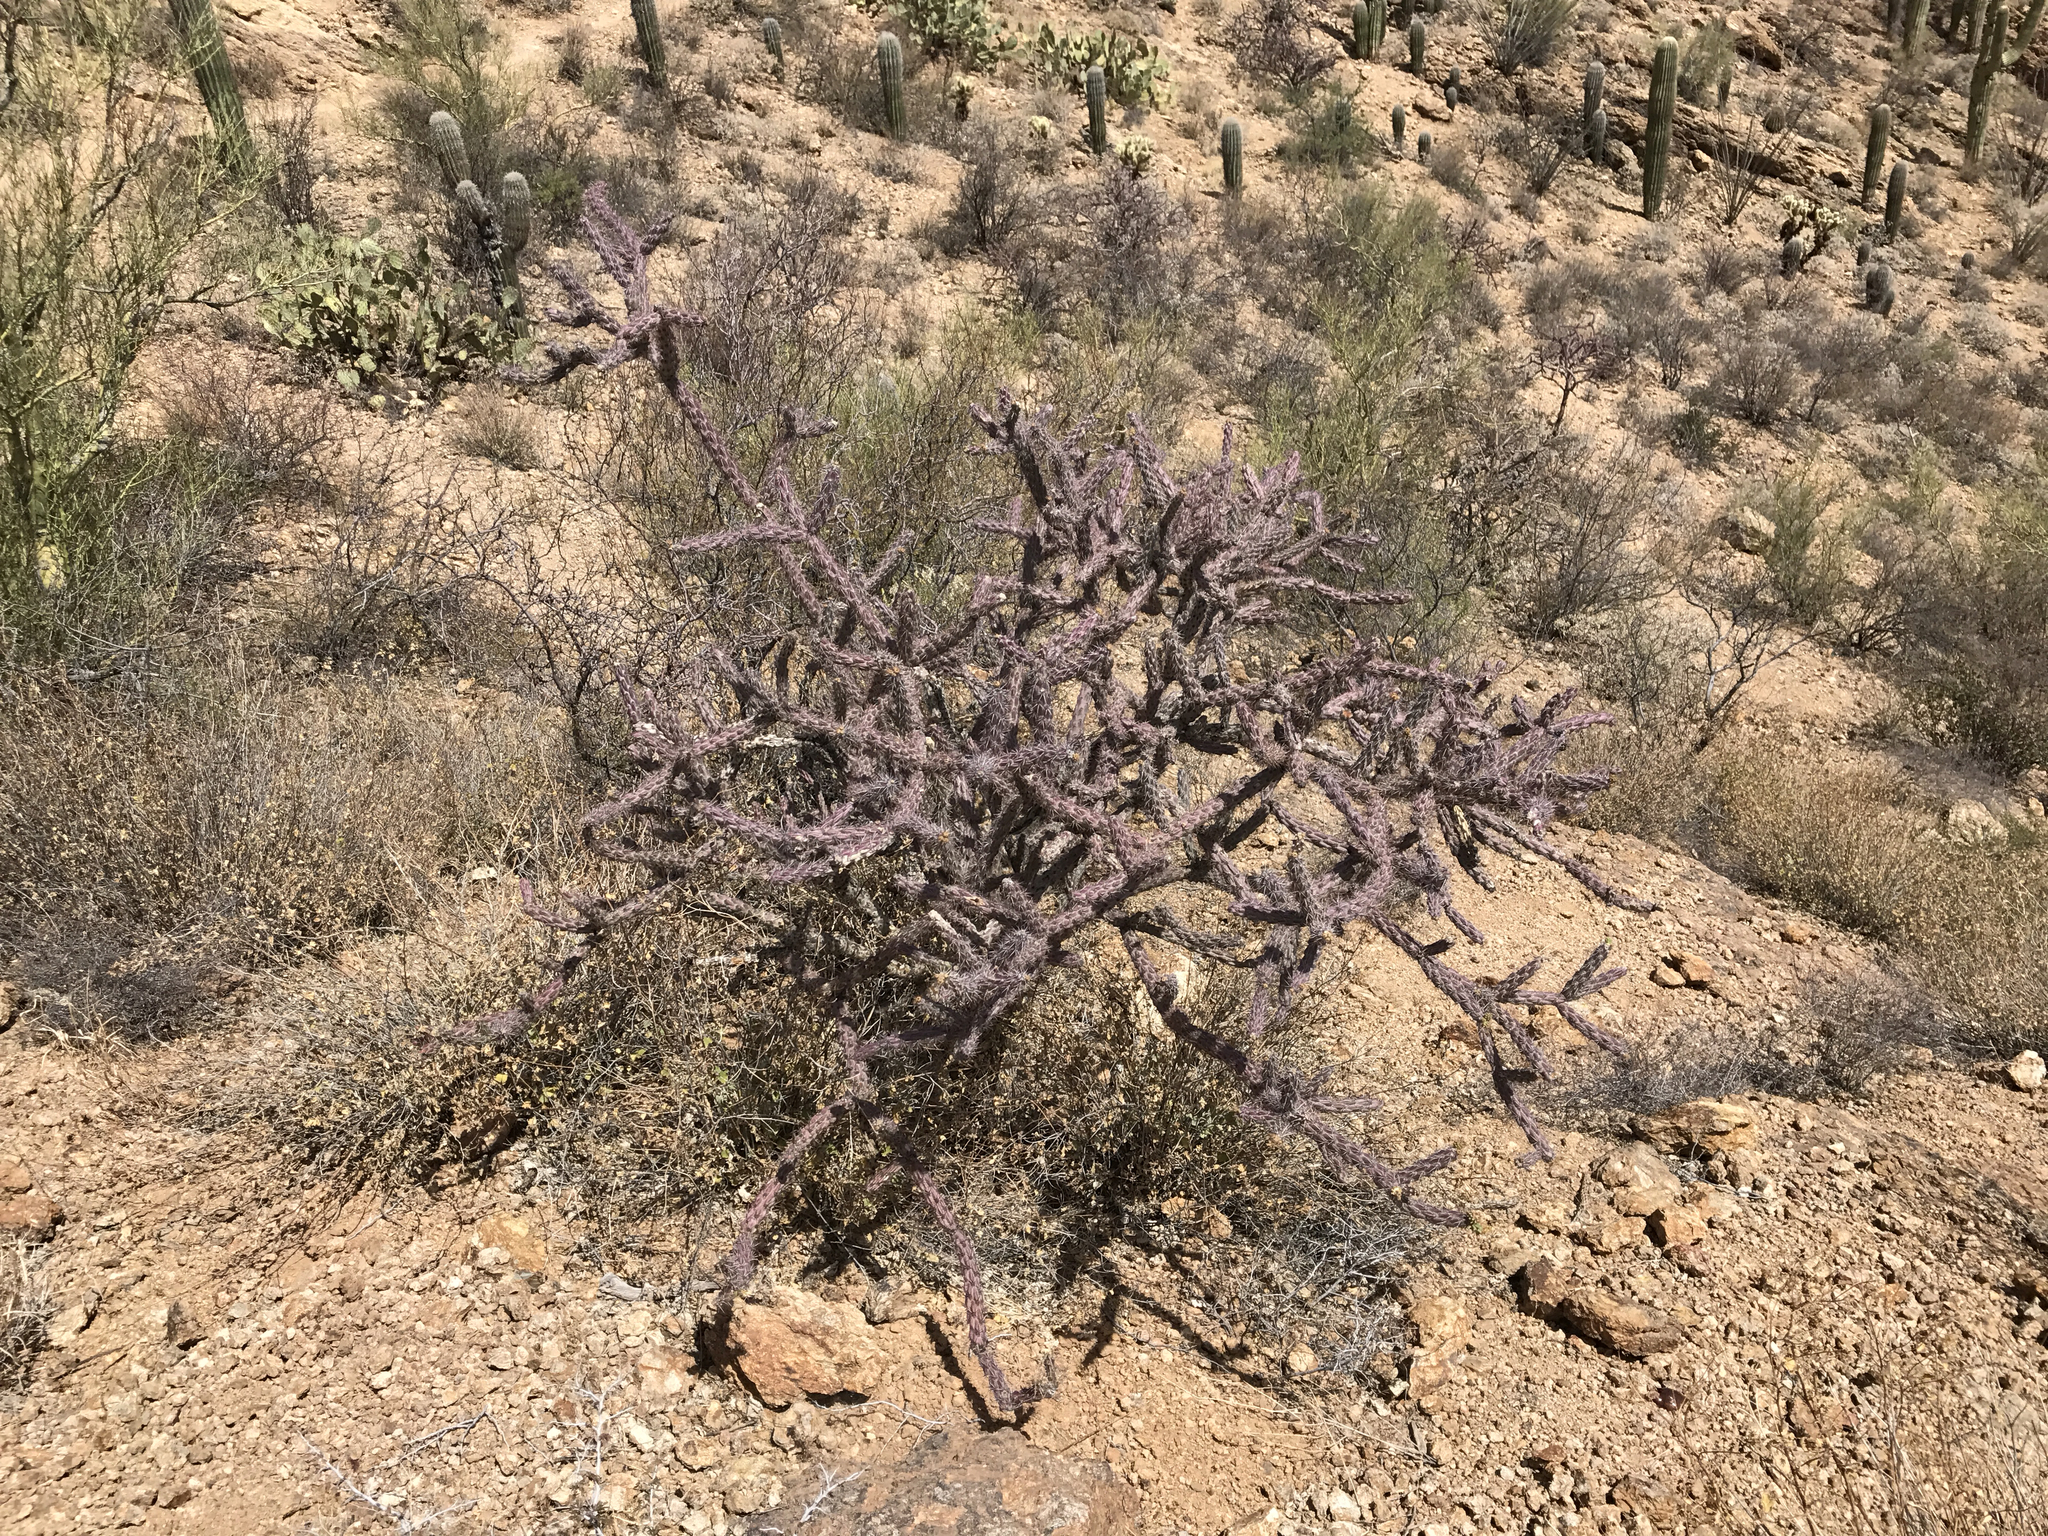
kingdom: Plantae
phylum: Tracheophyta
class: Magnoliopsida
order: Caryophyllales
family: Cactaceae
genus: Cylindropuntia
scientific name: Cylindropuntia thurberi
